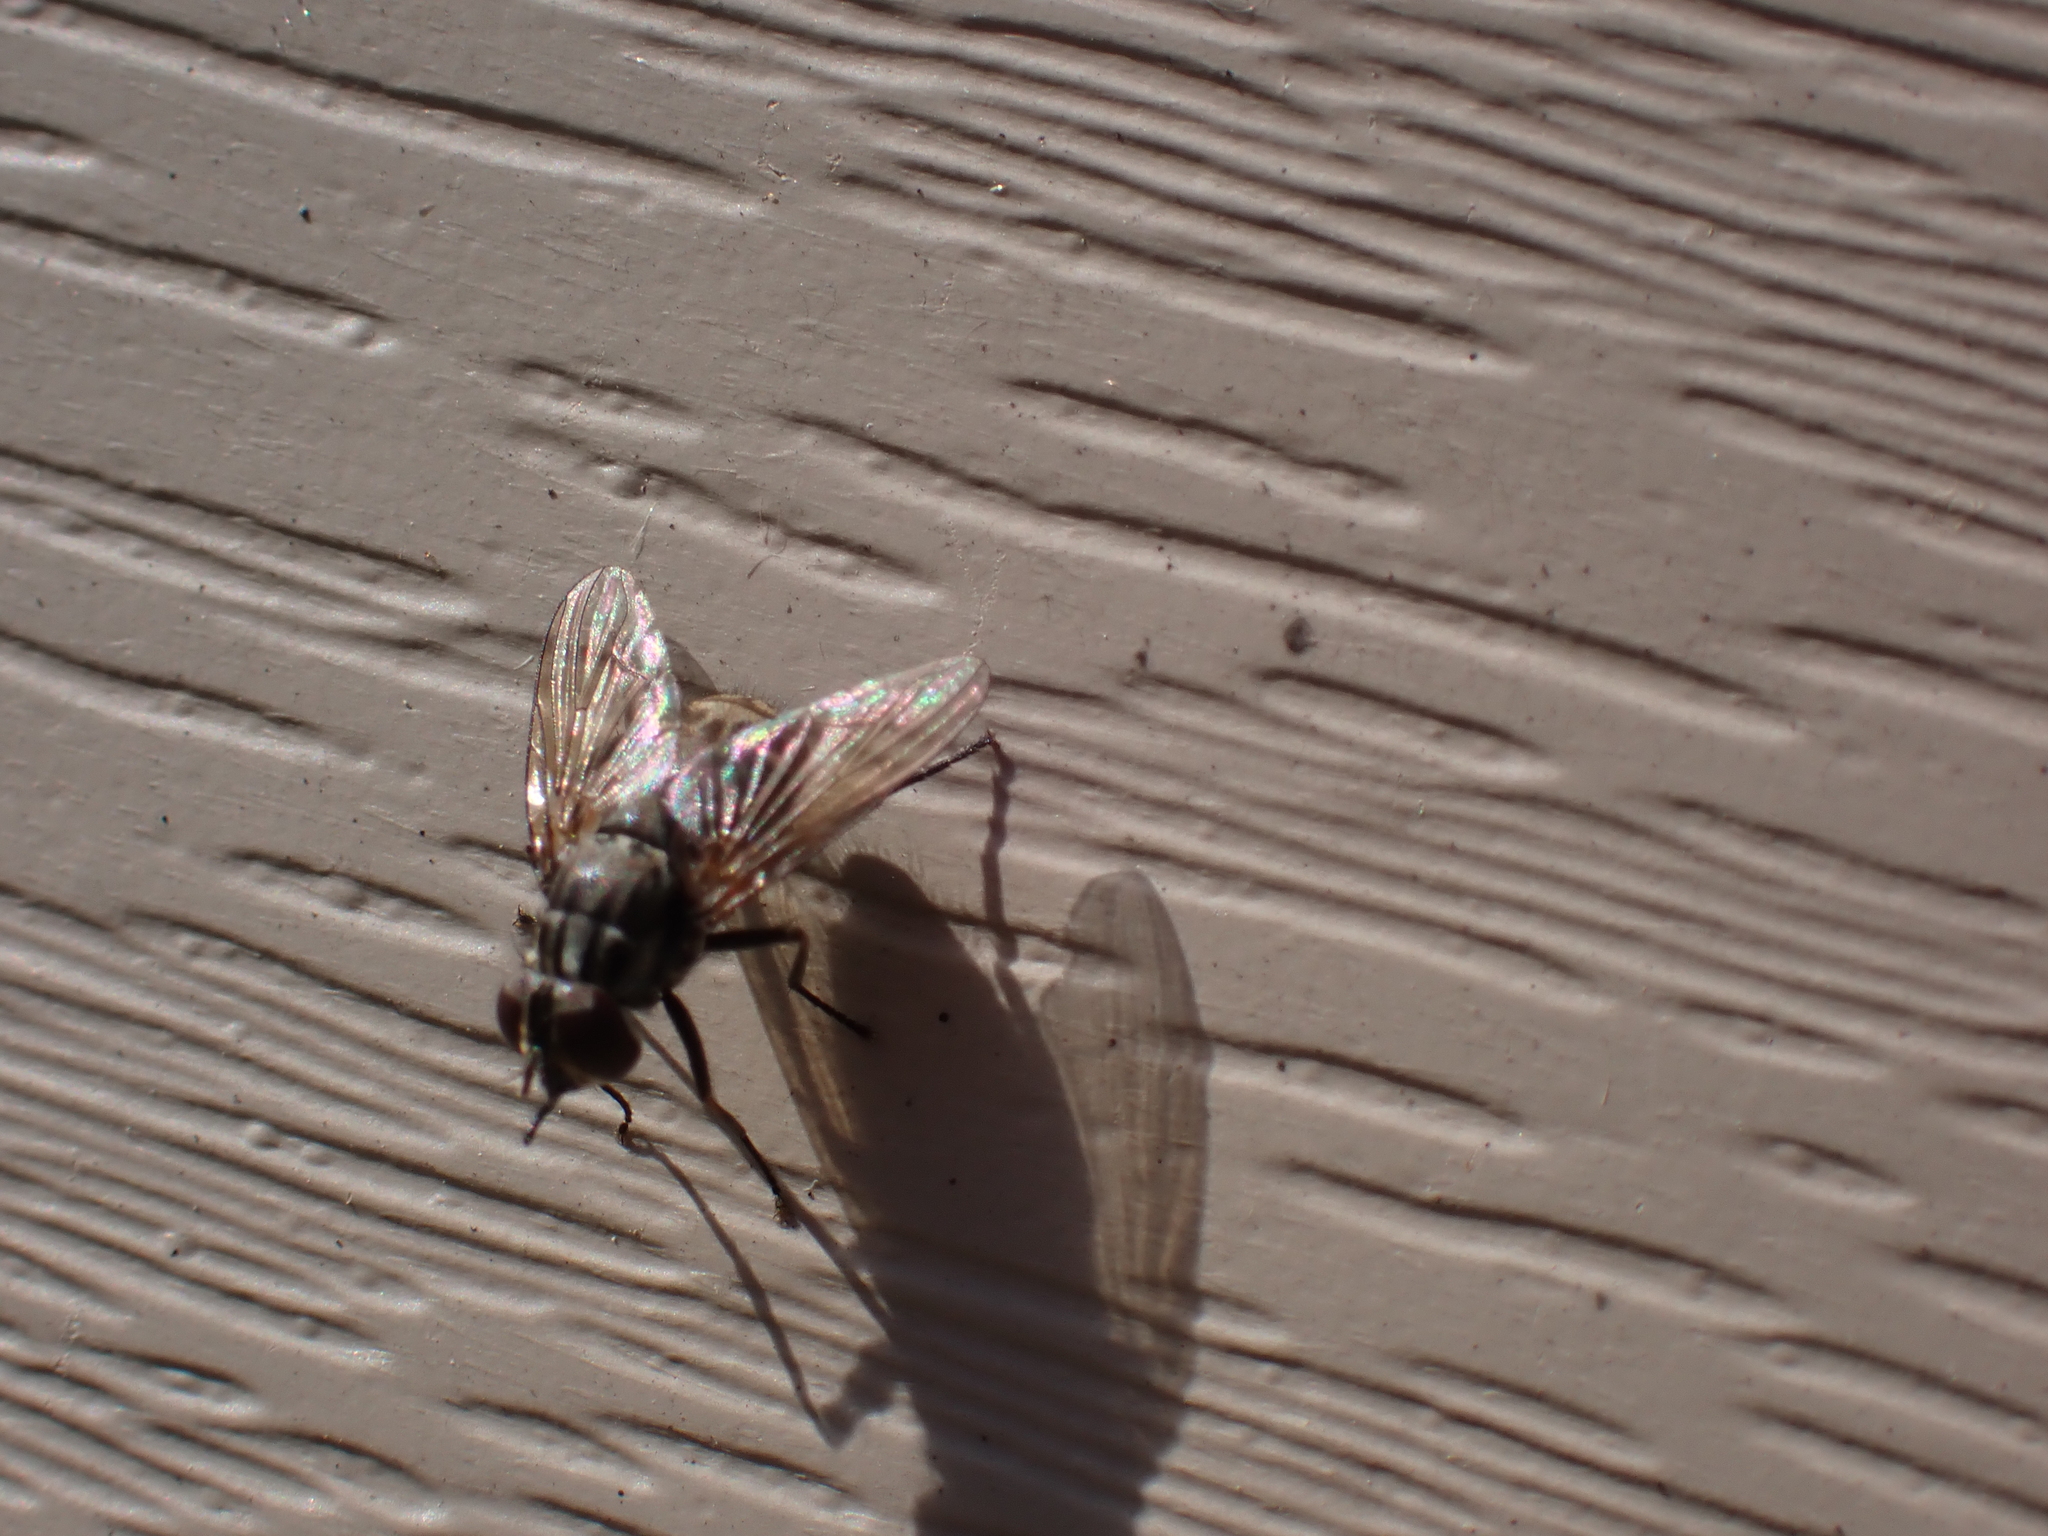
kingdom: Animalia
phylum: Arthropoda
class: Insecta
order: Diptera
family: Muscidae
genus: Stomoxys
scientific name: Stomoxys calcitrans
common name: Stable fly
